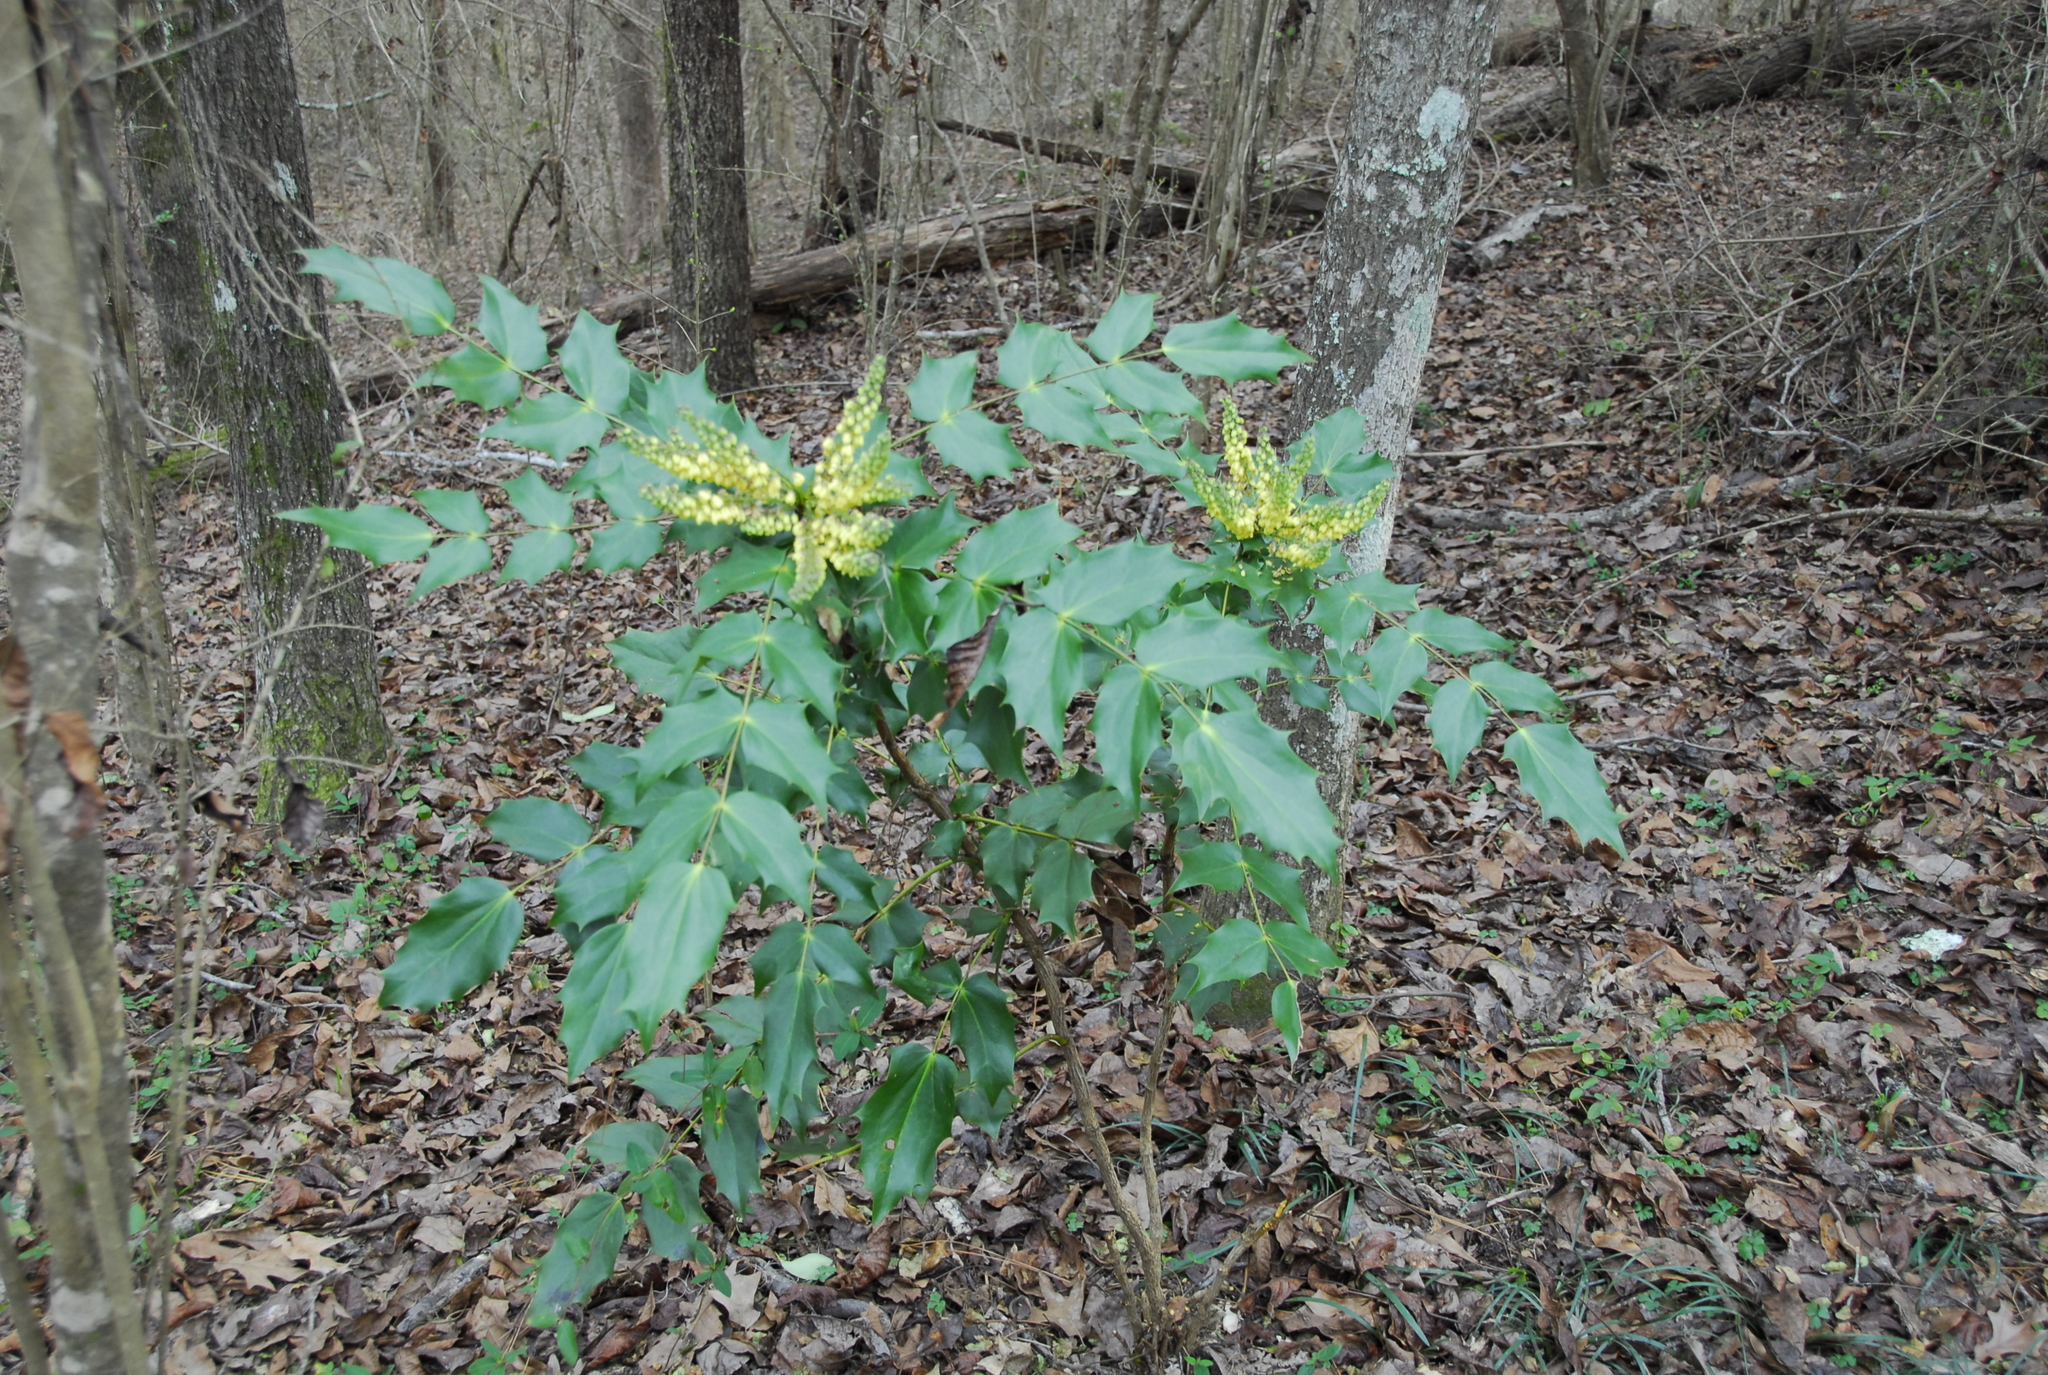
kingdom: Plantae
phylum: Tracheophyta
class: Magnoliopsida
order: Ranunculales
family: Berberidaceae
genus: Mahonia
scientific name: Mahonia bealei
